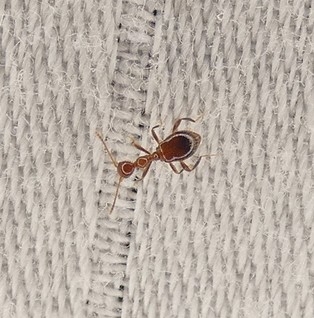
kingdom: Animalia
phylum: Arthropoda
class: Insecta
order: Coleoptera
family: Anthicidae
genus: Acanthinus
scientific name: Acanthinus
